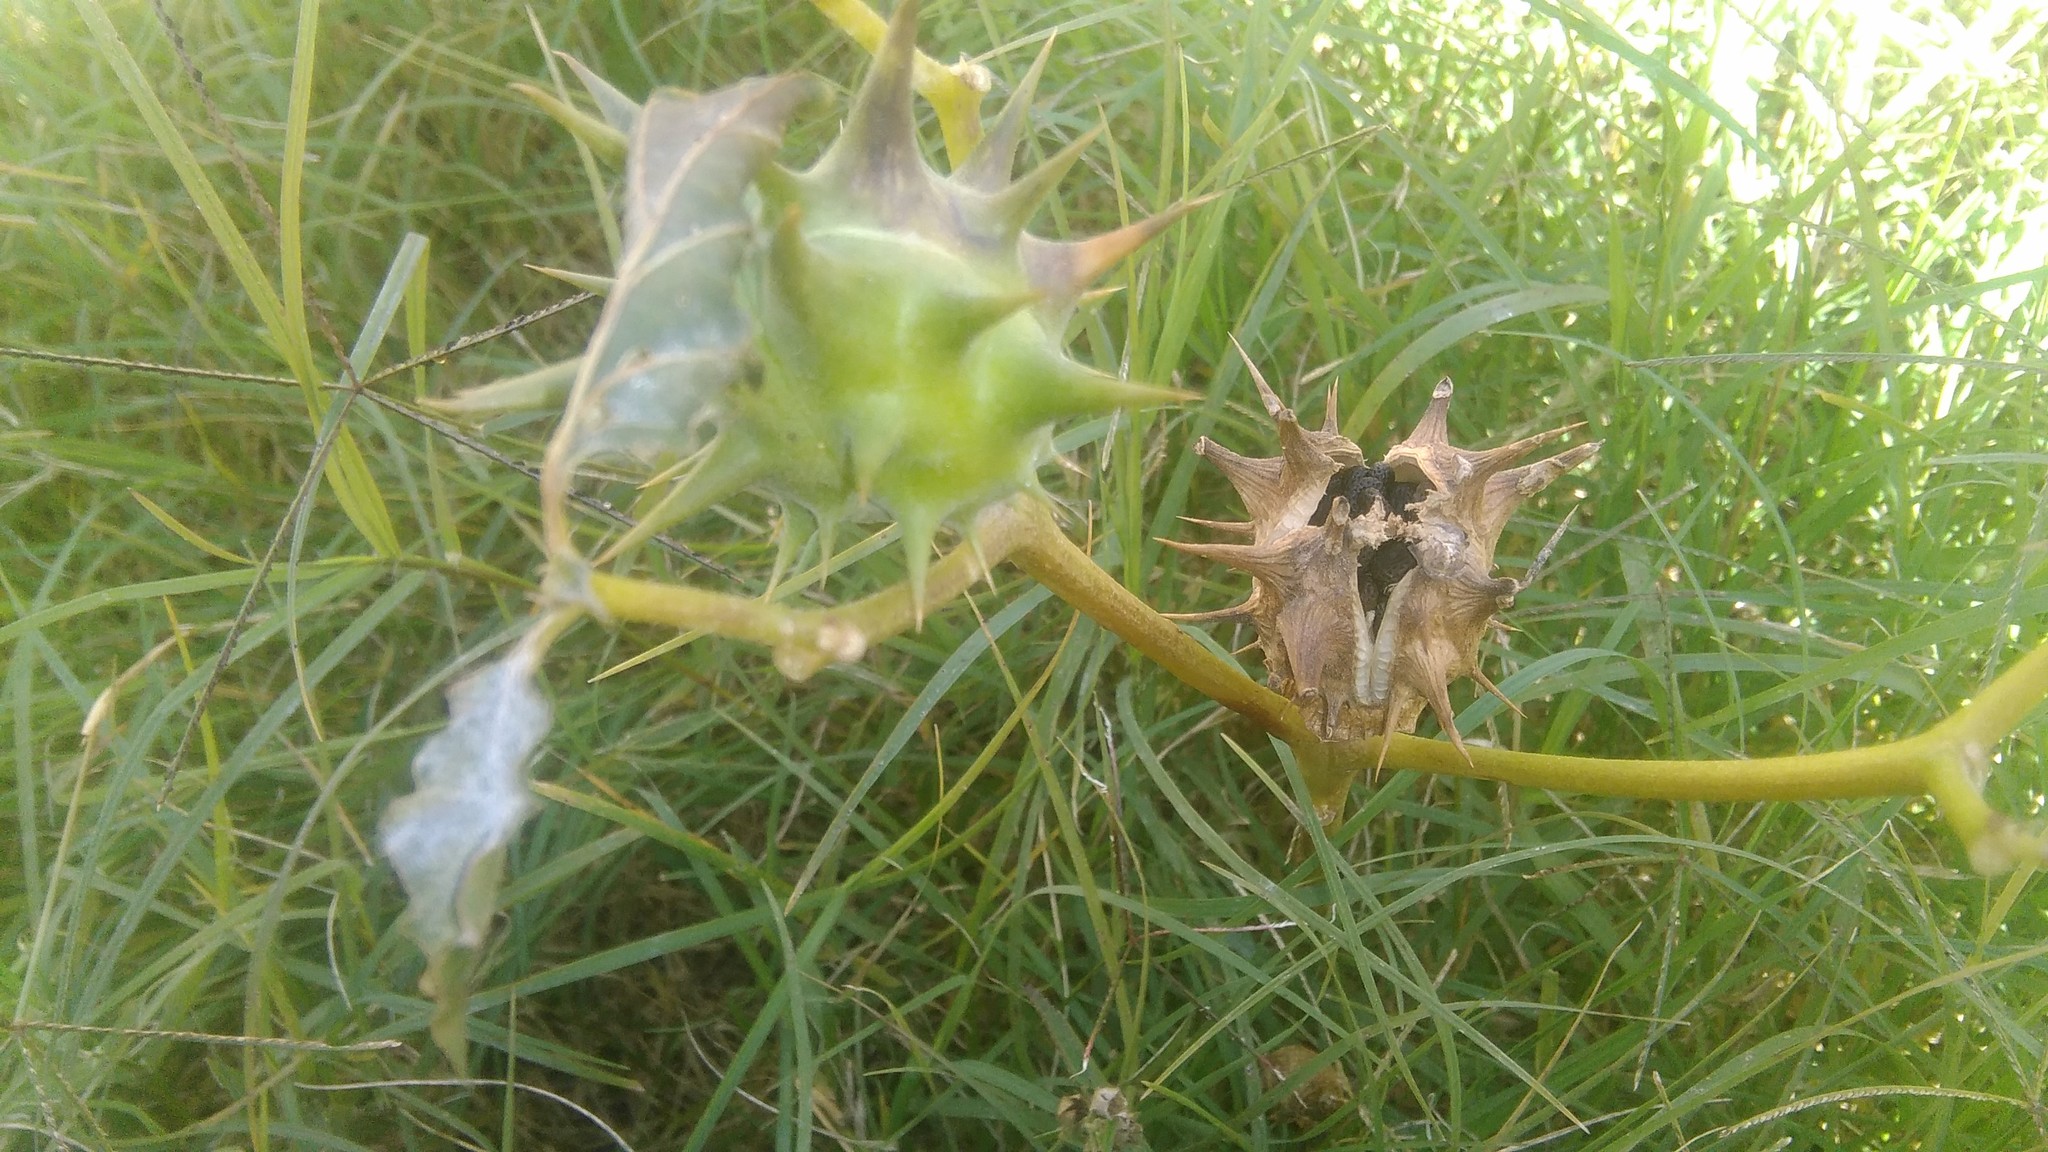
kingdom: Plantae
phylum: Tracheophyta
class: Magnoliopsida
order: Solanales
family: Solanaceae
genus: Datura
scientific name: Datura ferox
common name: Angel's-trumpets
